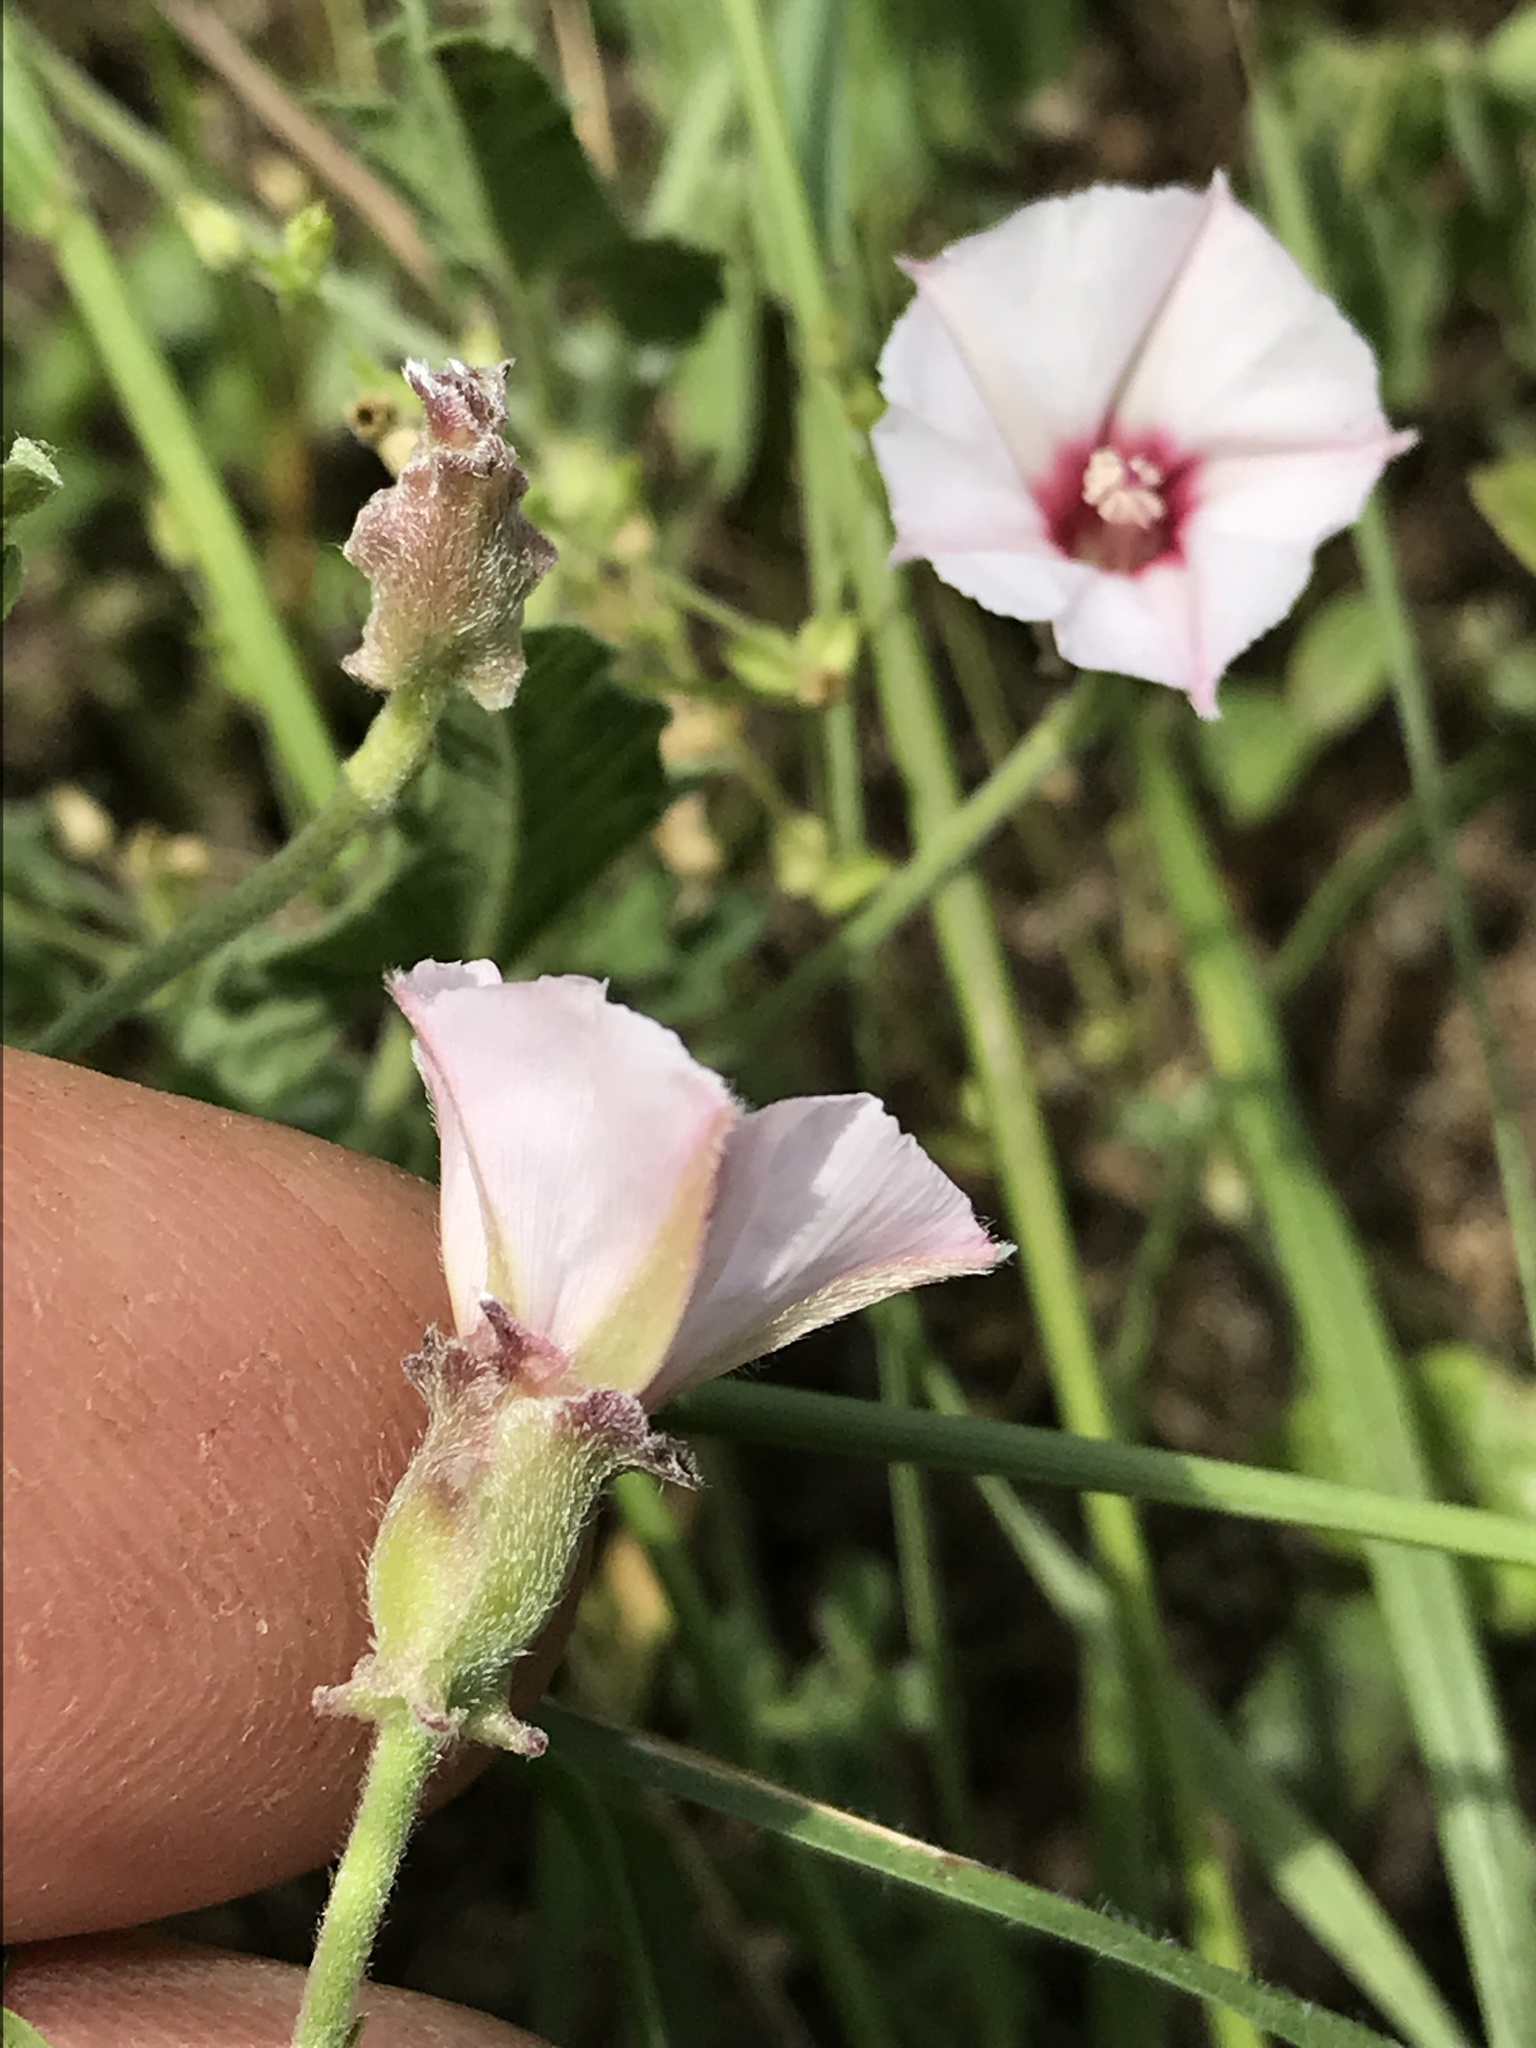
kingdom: Plantae
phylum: Tracheophyta
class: Magnoliopsida
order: Solanales
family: Convolvulaceae
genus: Convolvulus
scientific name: Convolvulus equitans
